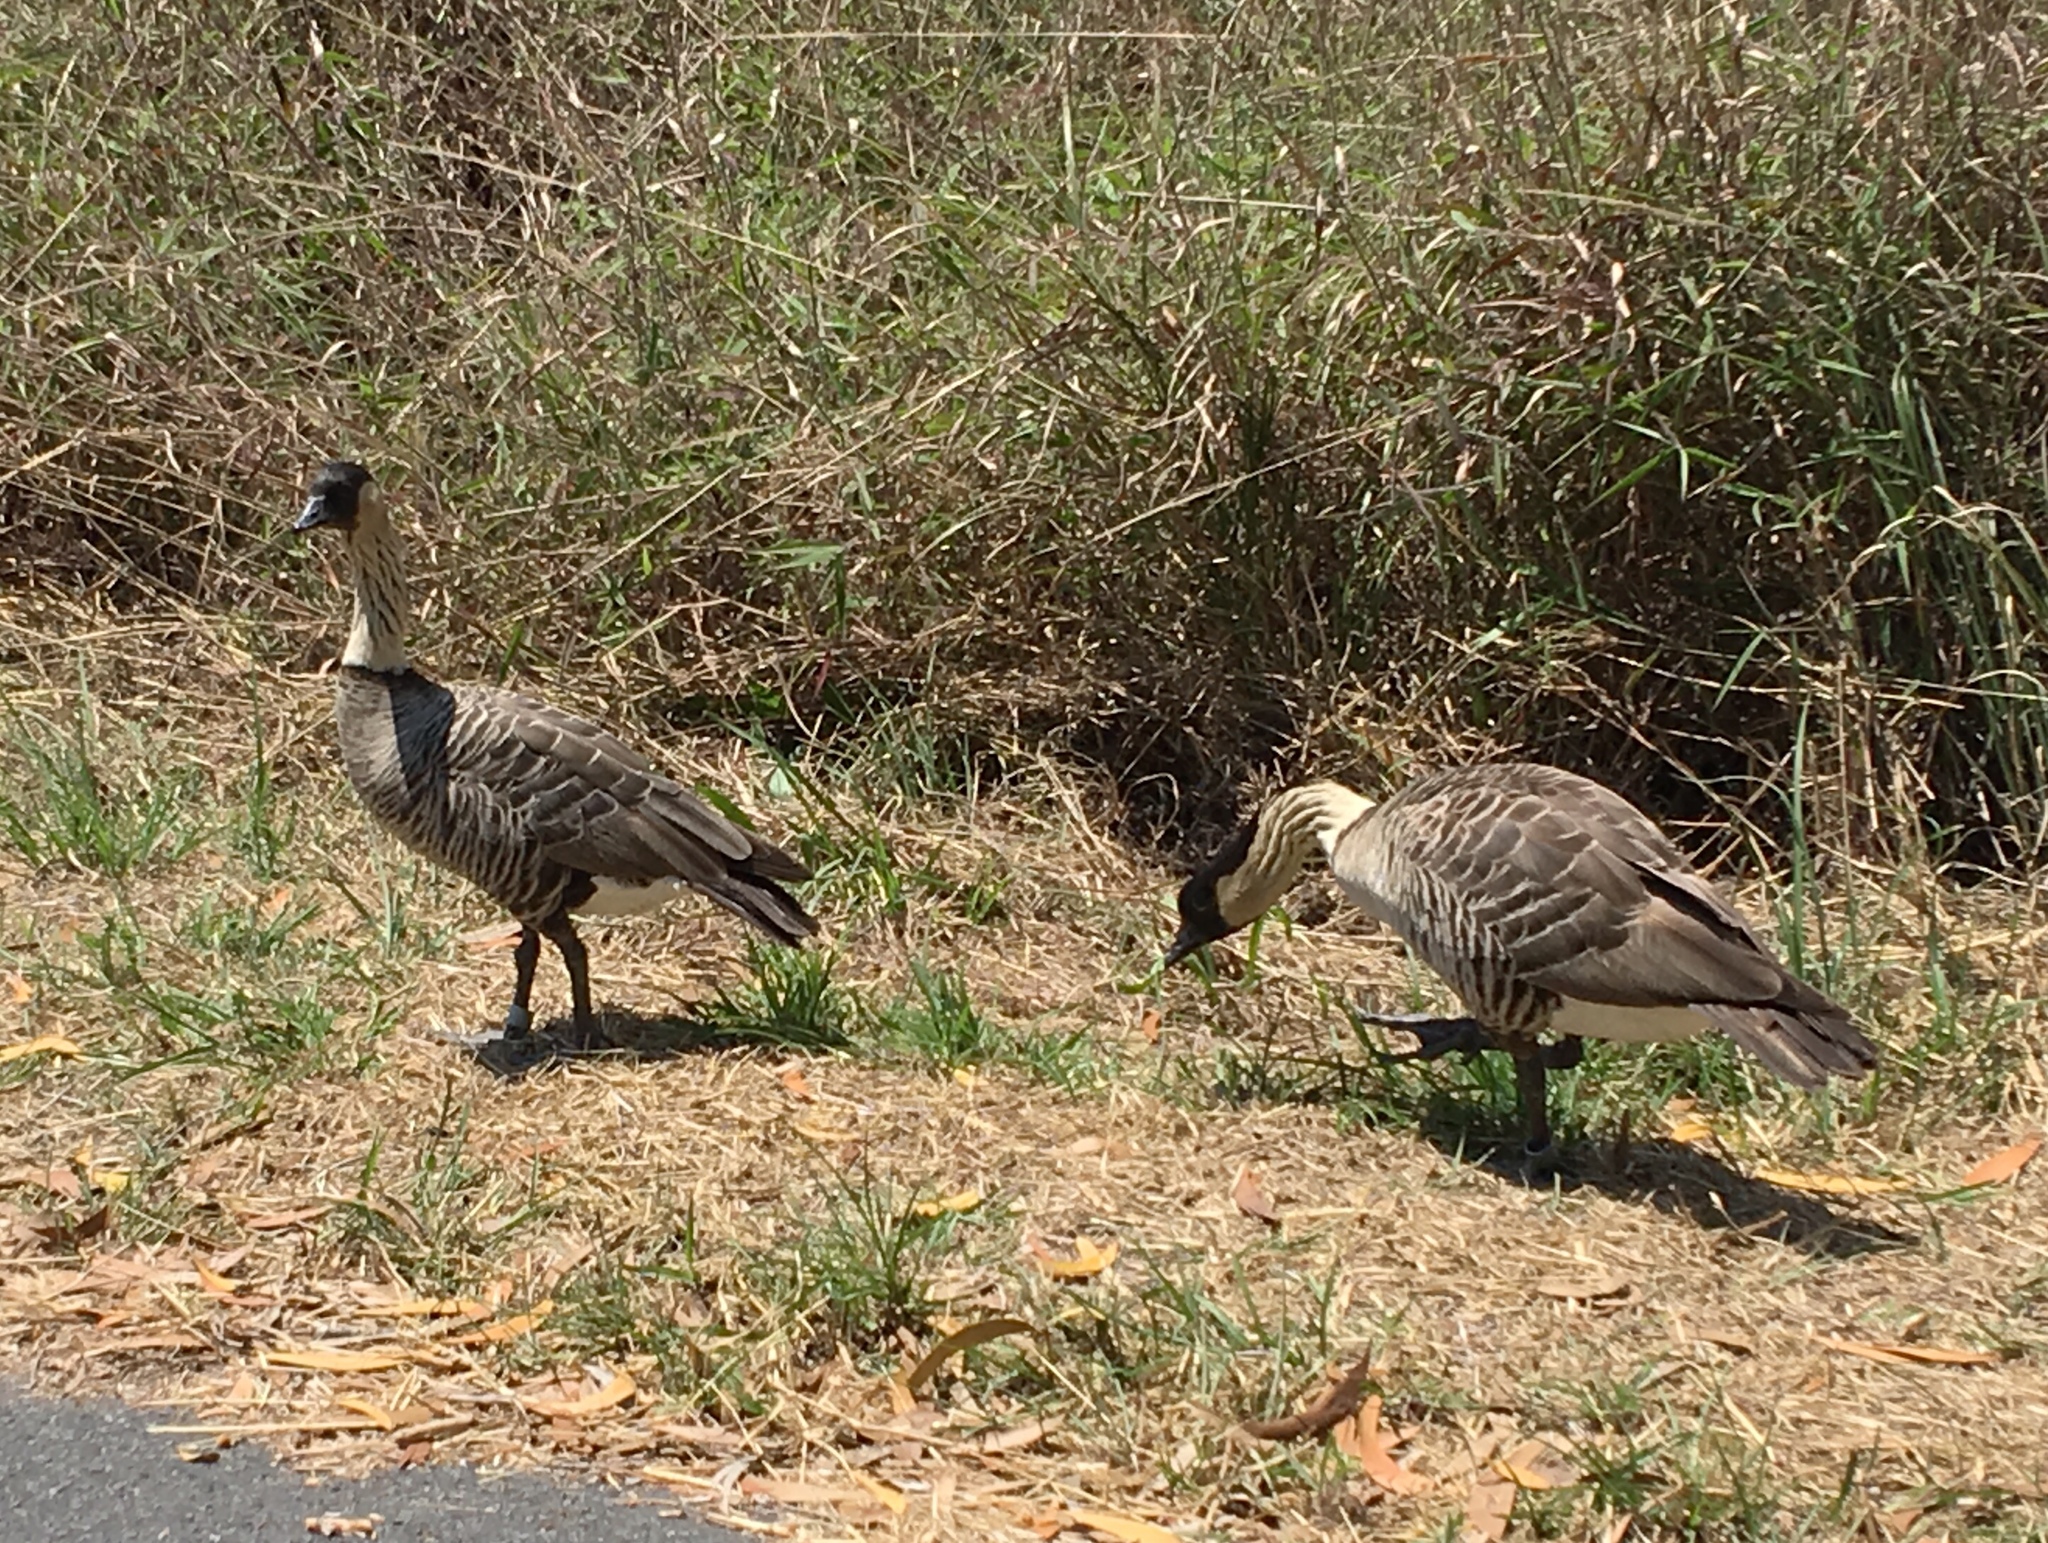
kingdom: Animalia
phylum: Chordata
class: Aves
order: Anseriformes
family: Anatidae
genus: Branta
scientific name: Branta sandvicensis
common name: Nene
